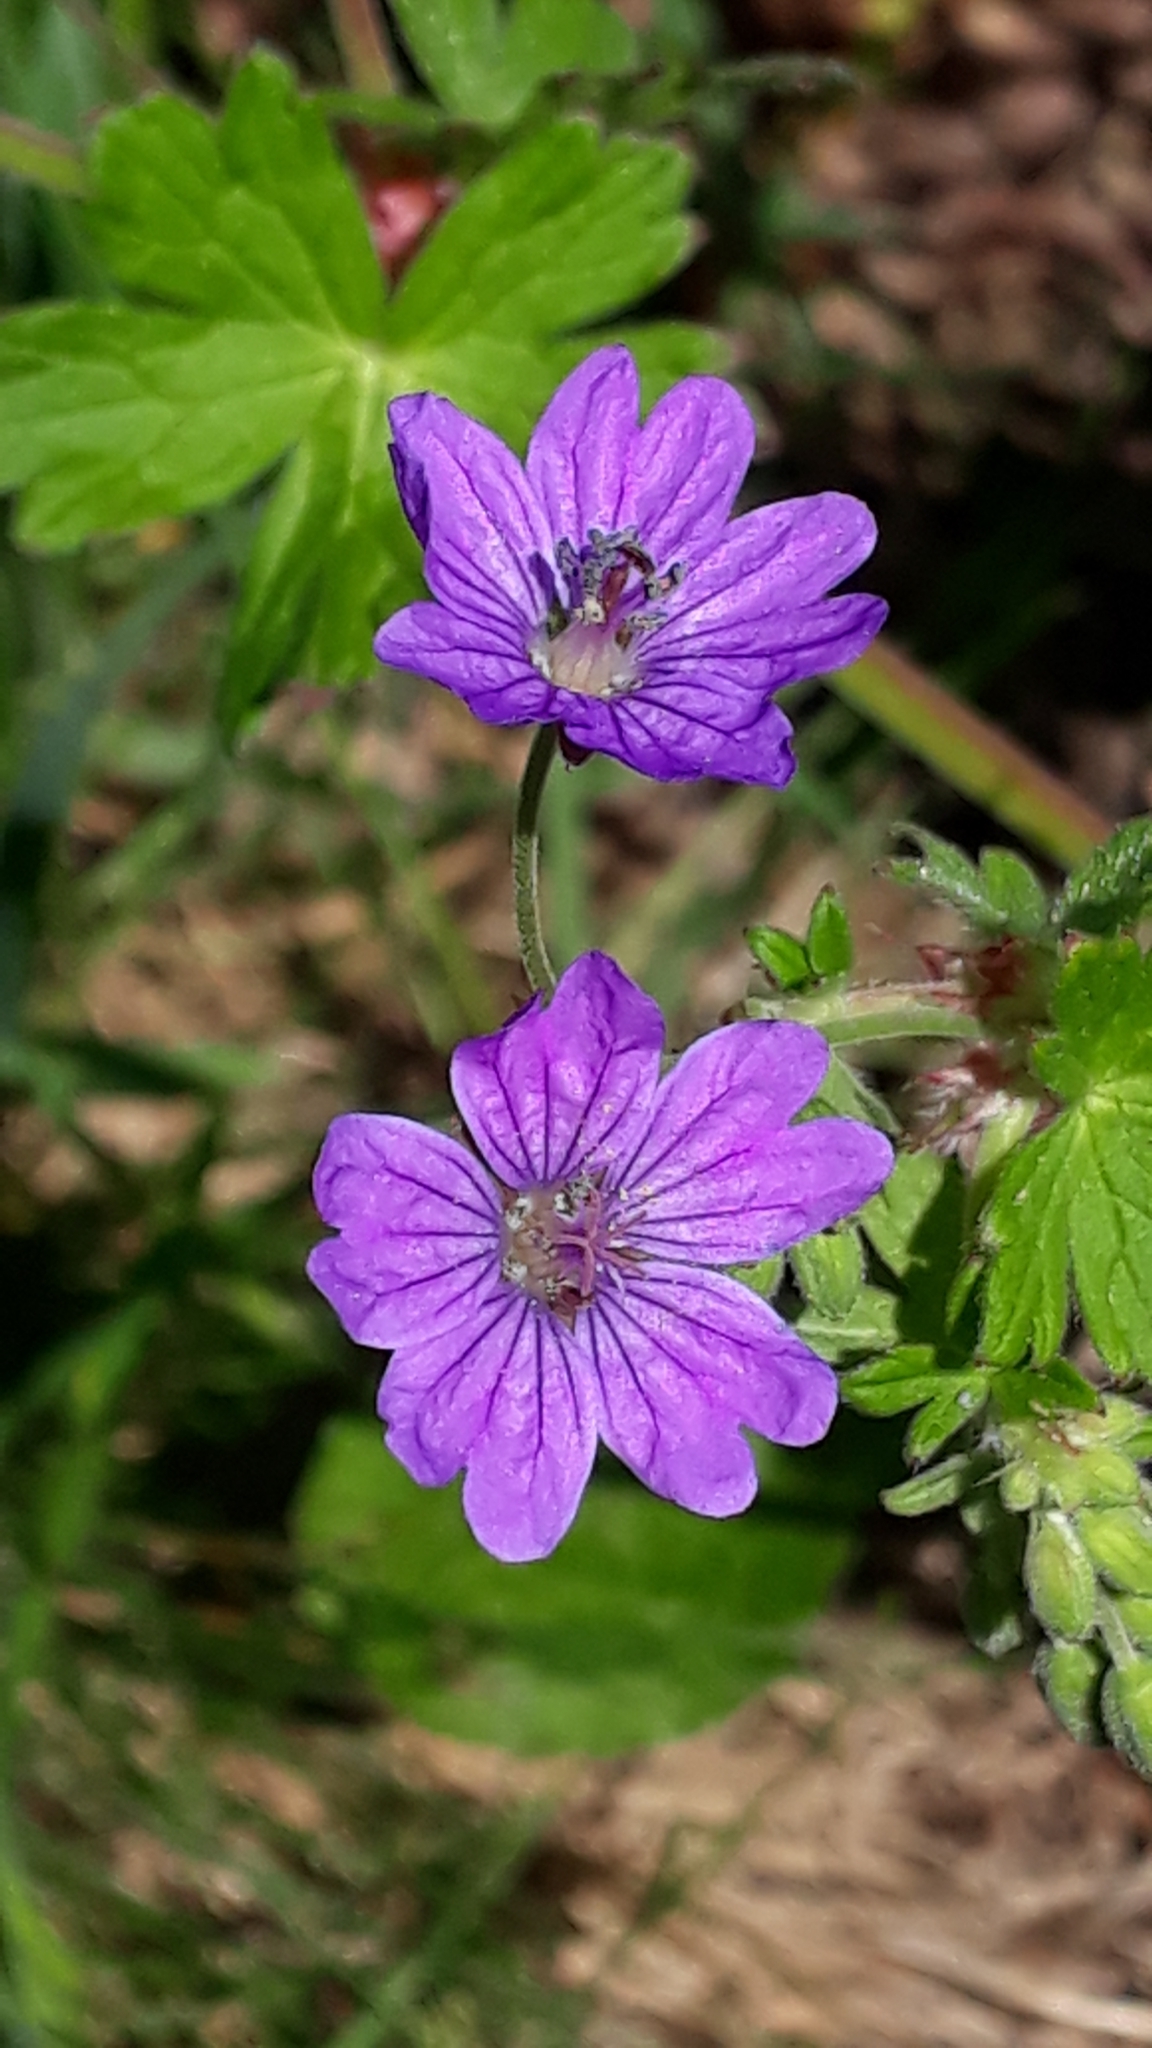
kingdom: Plantae
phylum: Tracheophyta
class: Magnoliopsida
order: Geraniales
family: Geraniaceae
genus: Geranium
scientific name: Geranium pyrenaicum
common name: Hedgerow crane's-bill
